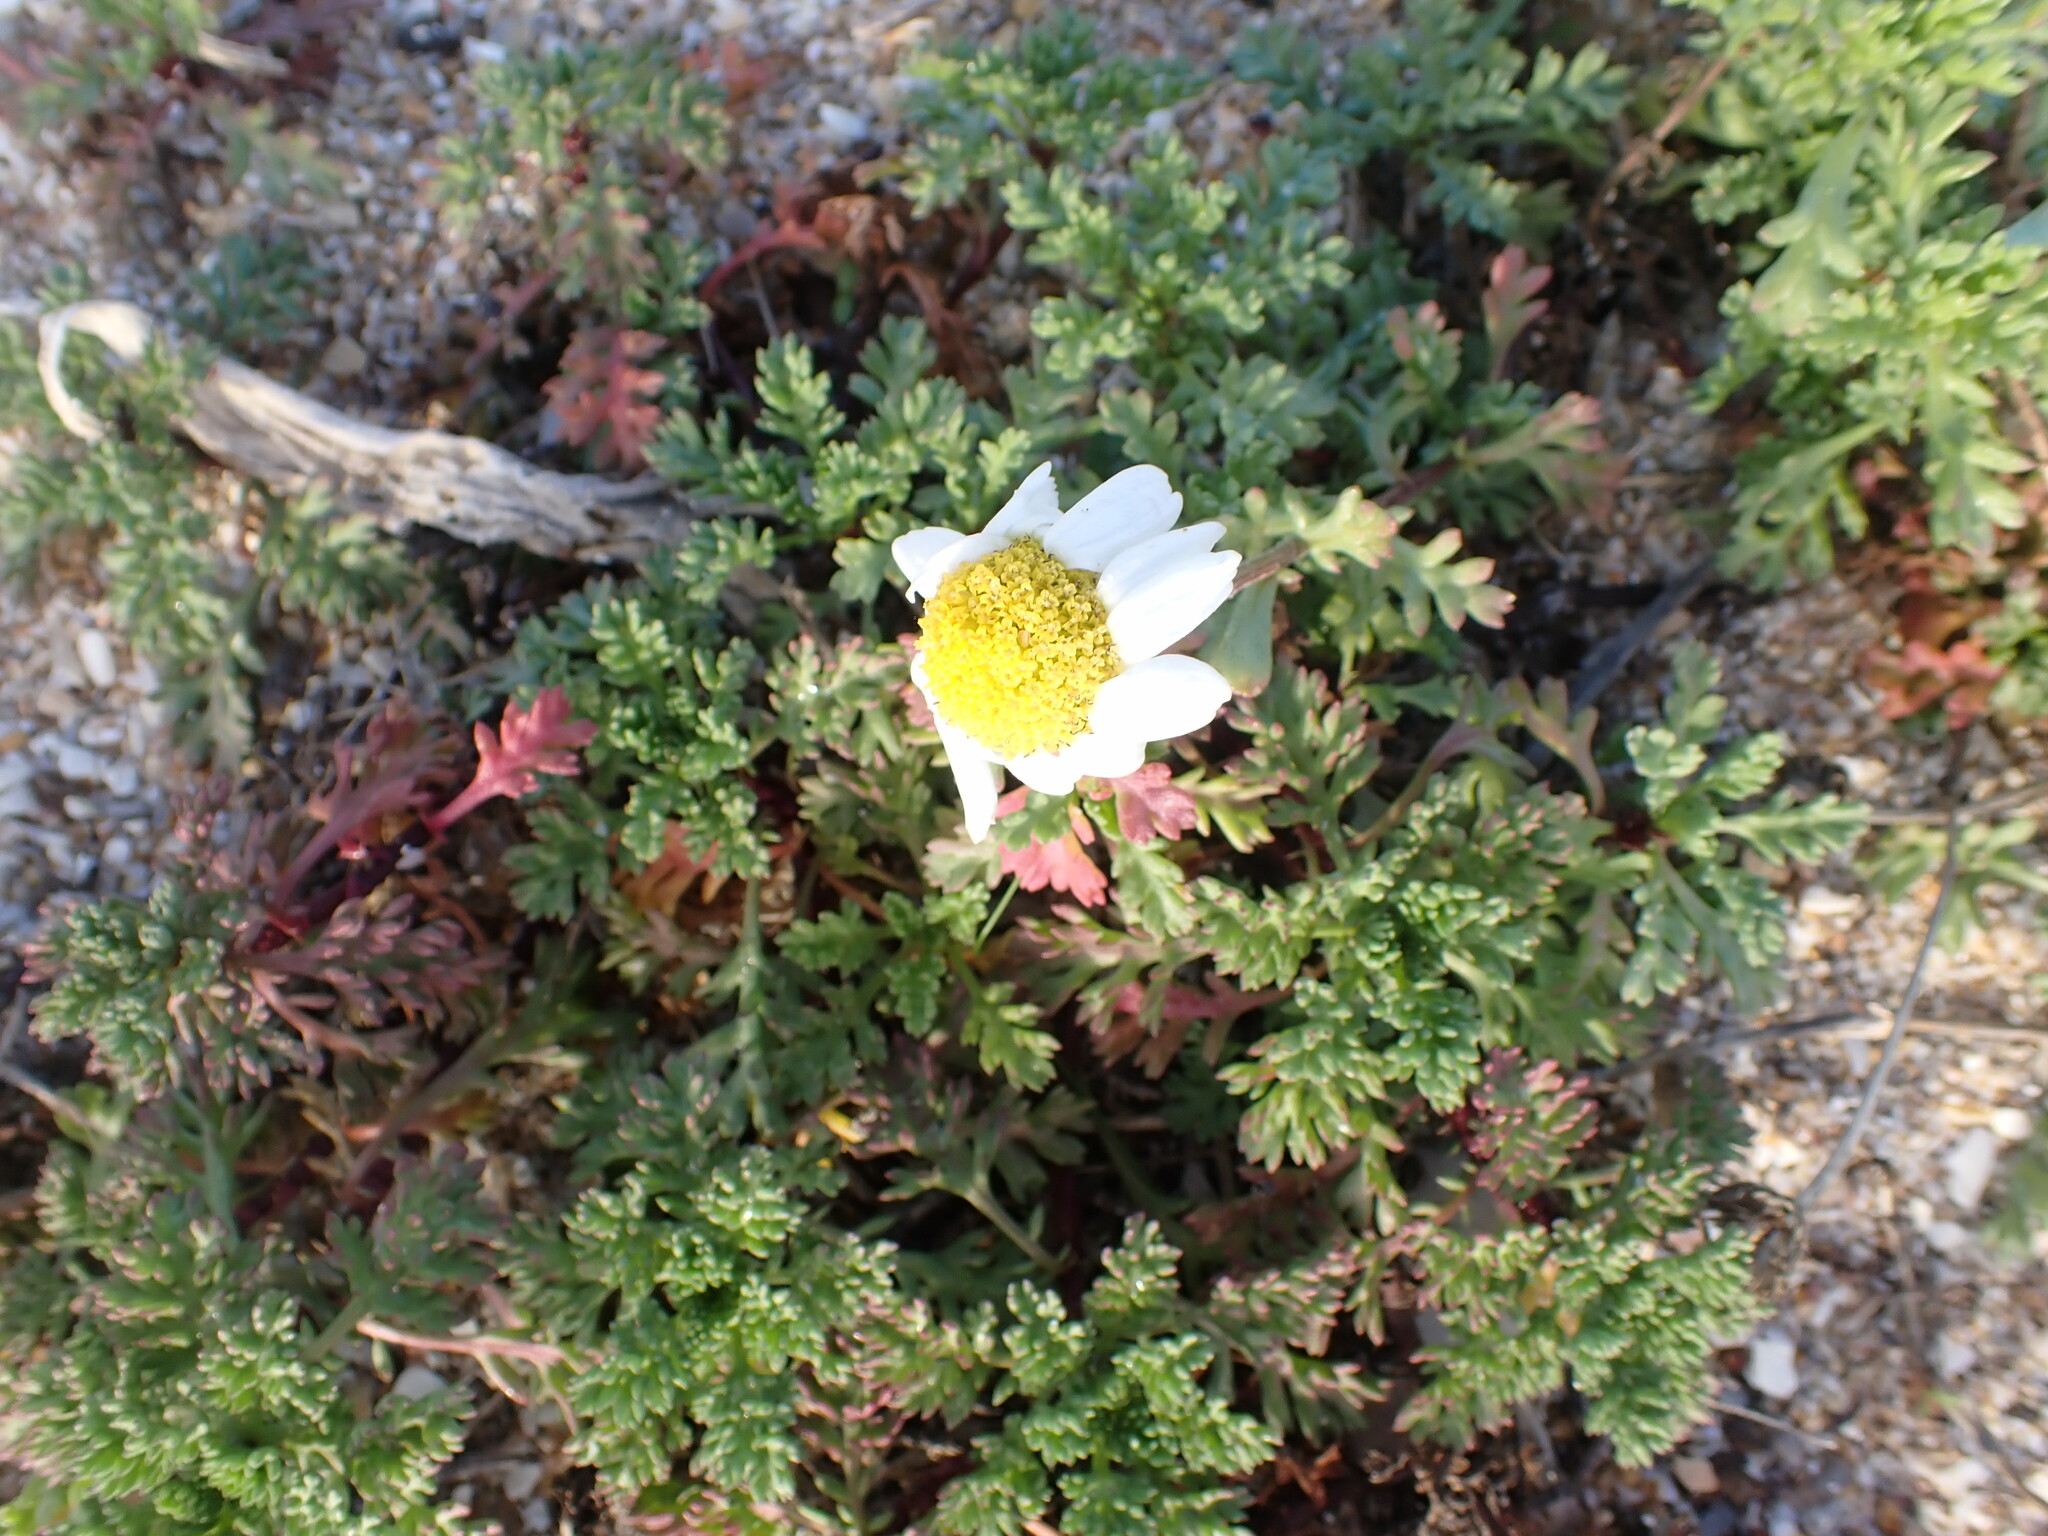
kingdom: Plantae
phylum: Tracheophyta
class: Magnoliopsida
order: Asterales
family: Asteraceae
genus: Anthemis
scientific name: Anthemis maritima
